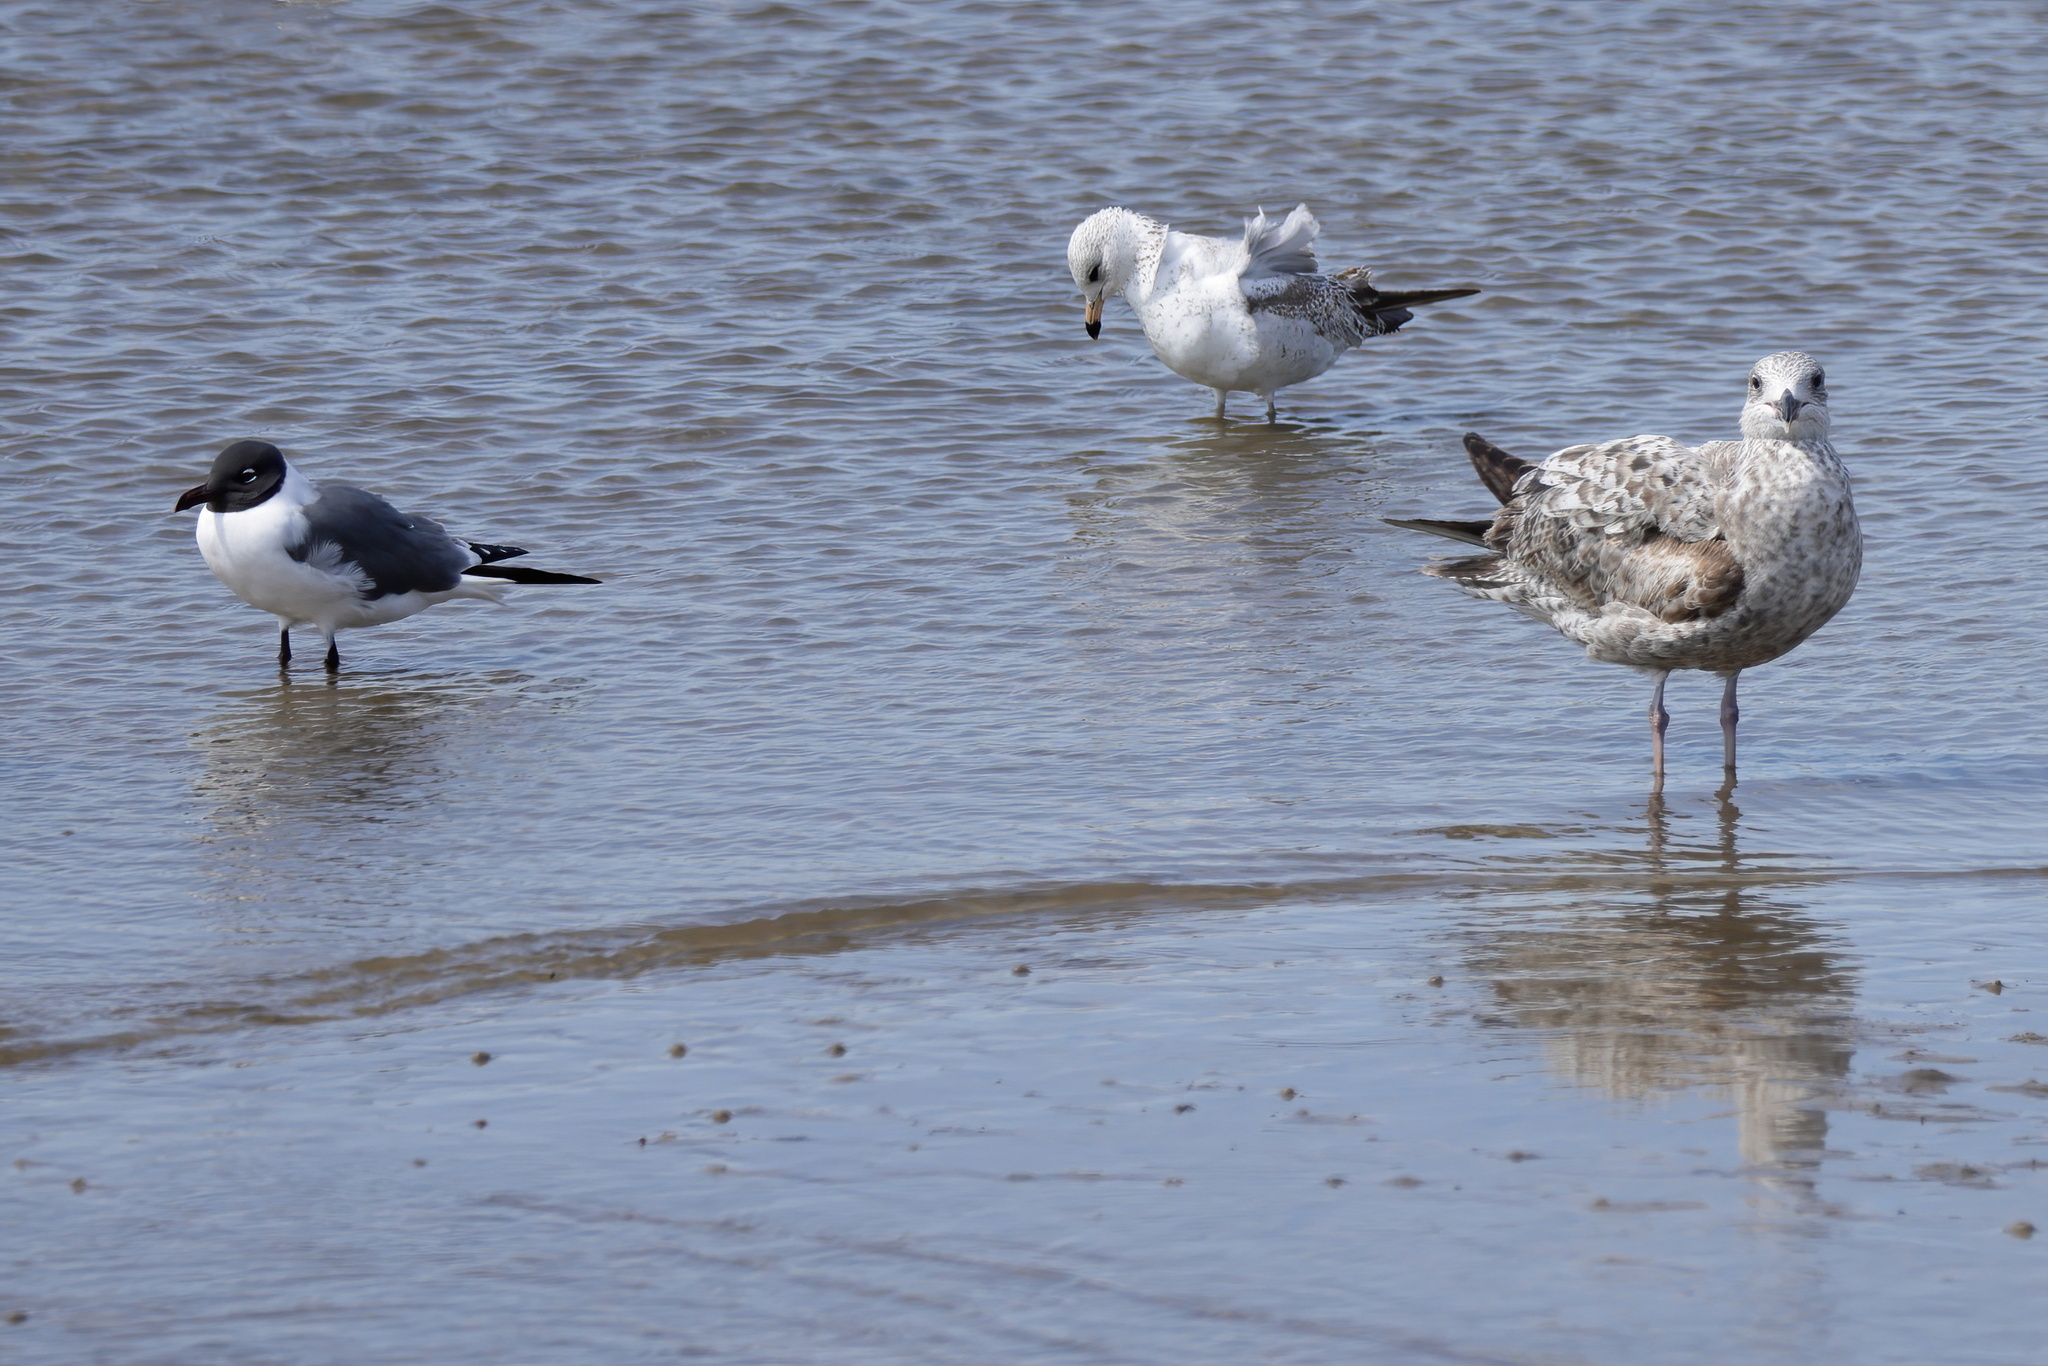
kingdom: Animalia
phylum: Chordata
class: Aves
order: Charadriiformes
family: Laridae
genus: Larus
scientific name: Larus delawarensis
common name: Ring-billed gull
